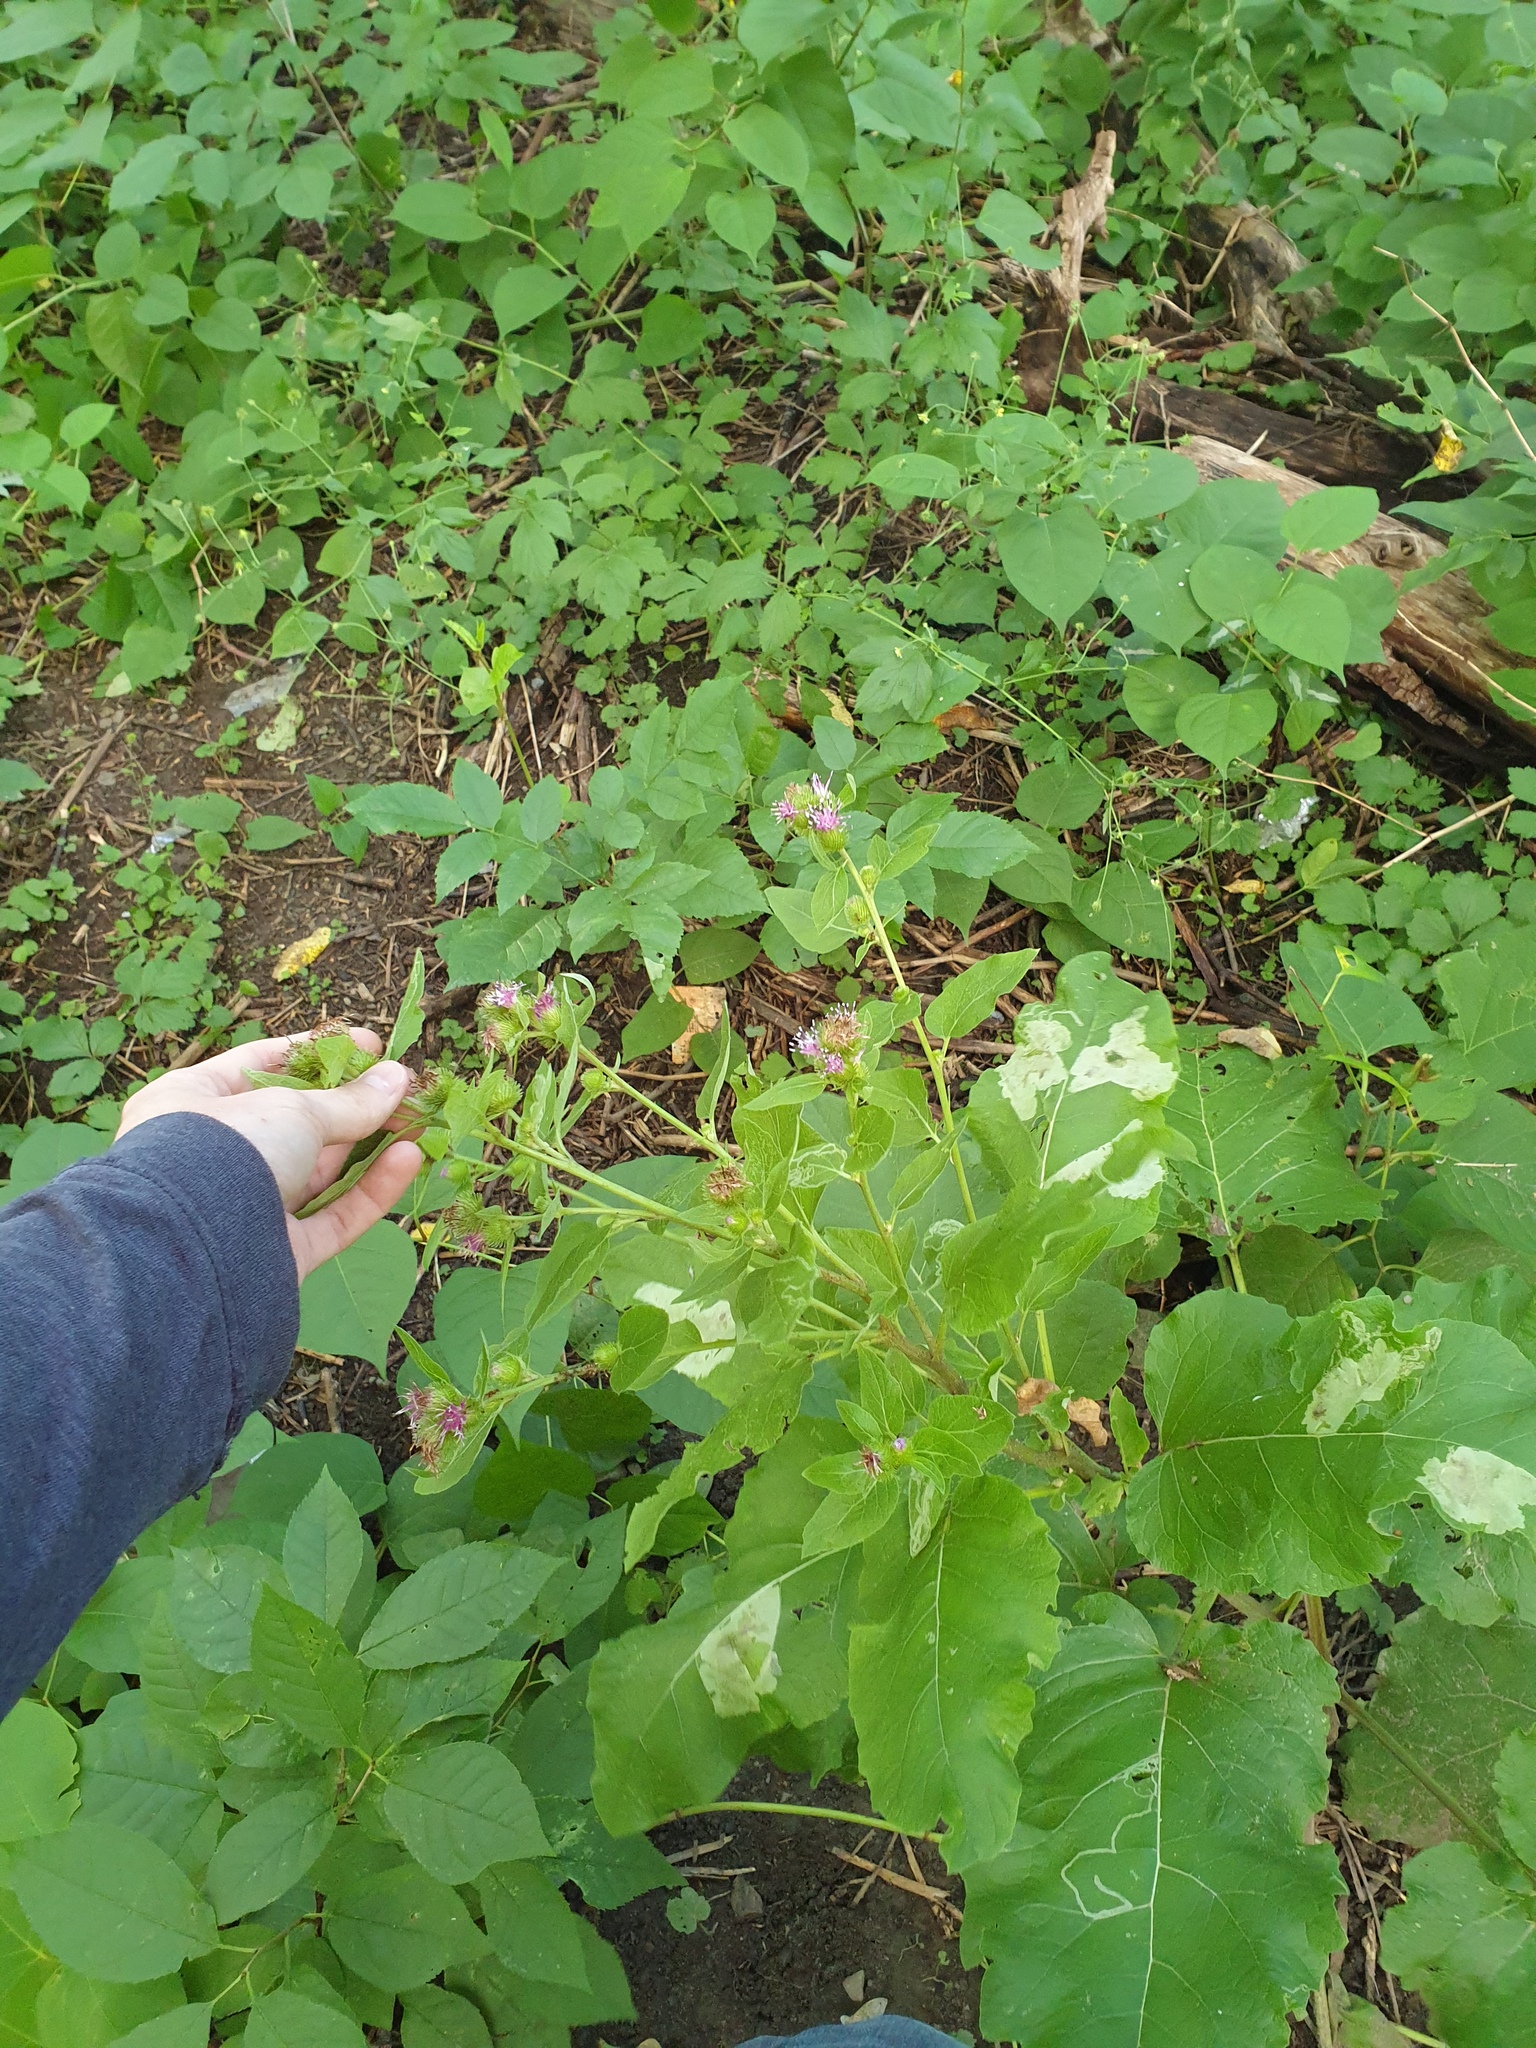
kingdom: Plantae
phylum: Tracheophyta
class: Magnoliopsida
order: Asterales
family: Asteraceae
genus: Arctium
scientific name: Arctium minus
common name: Lesser burdock
